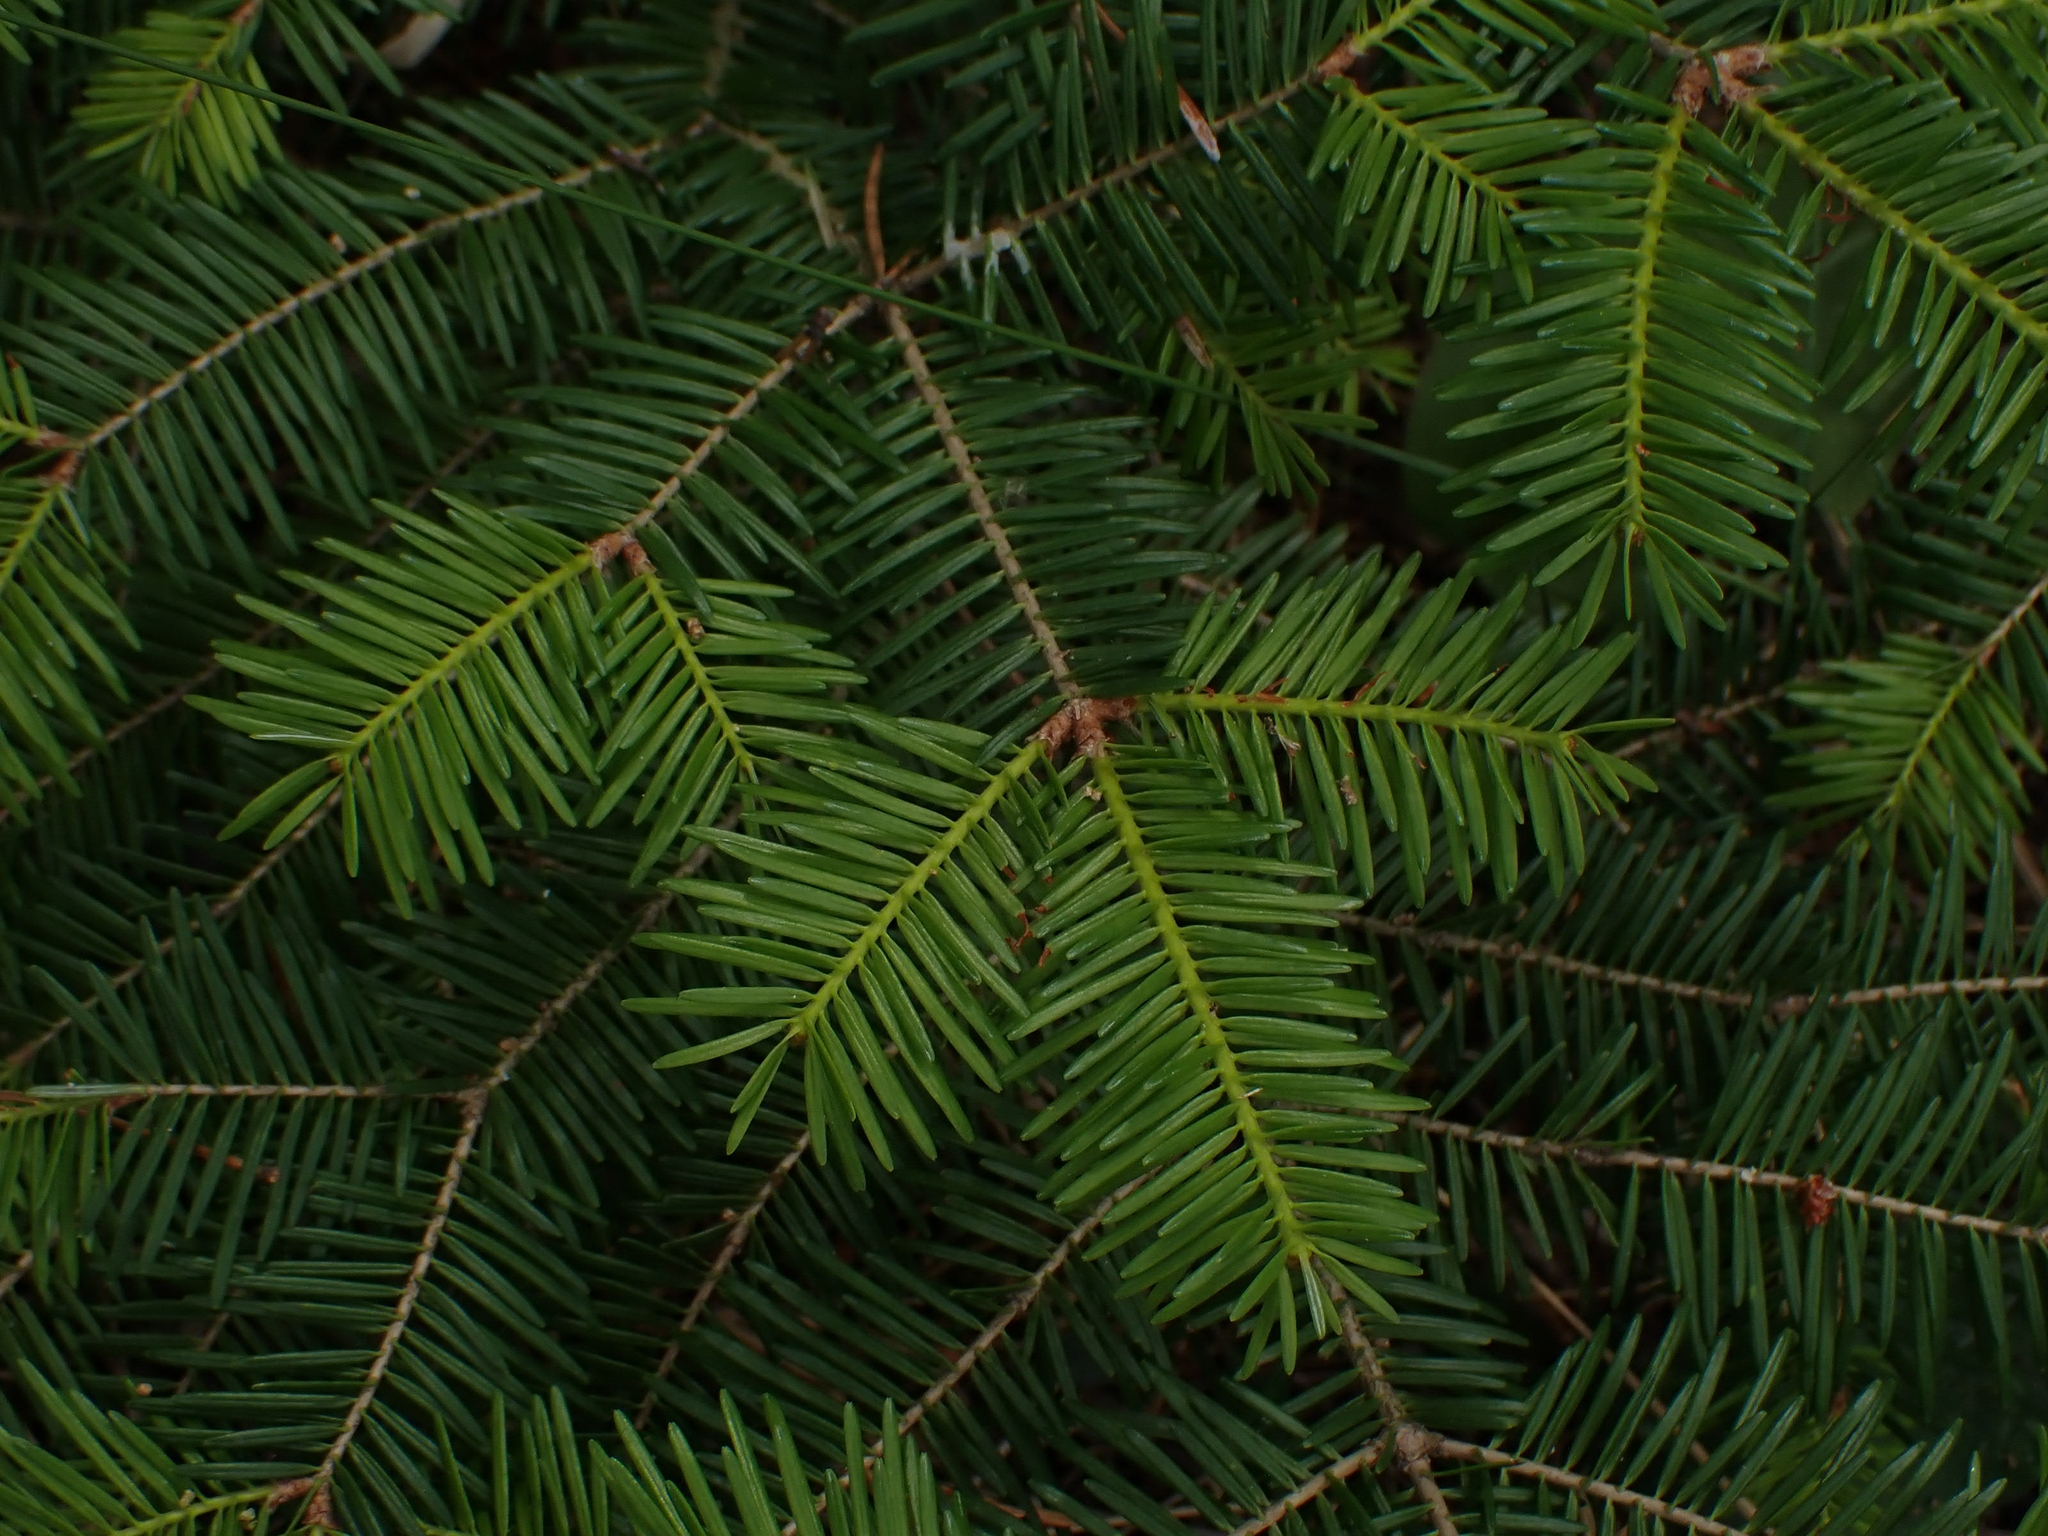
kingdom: Plantae
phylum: Tracheophyta
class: Pinopsida
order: Pinales
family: Pinaceae
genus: Abies
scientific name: Abies balsamea
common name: Balsam fir
